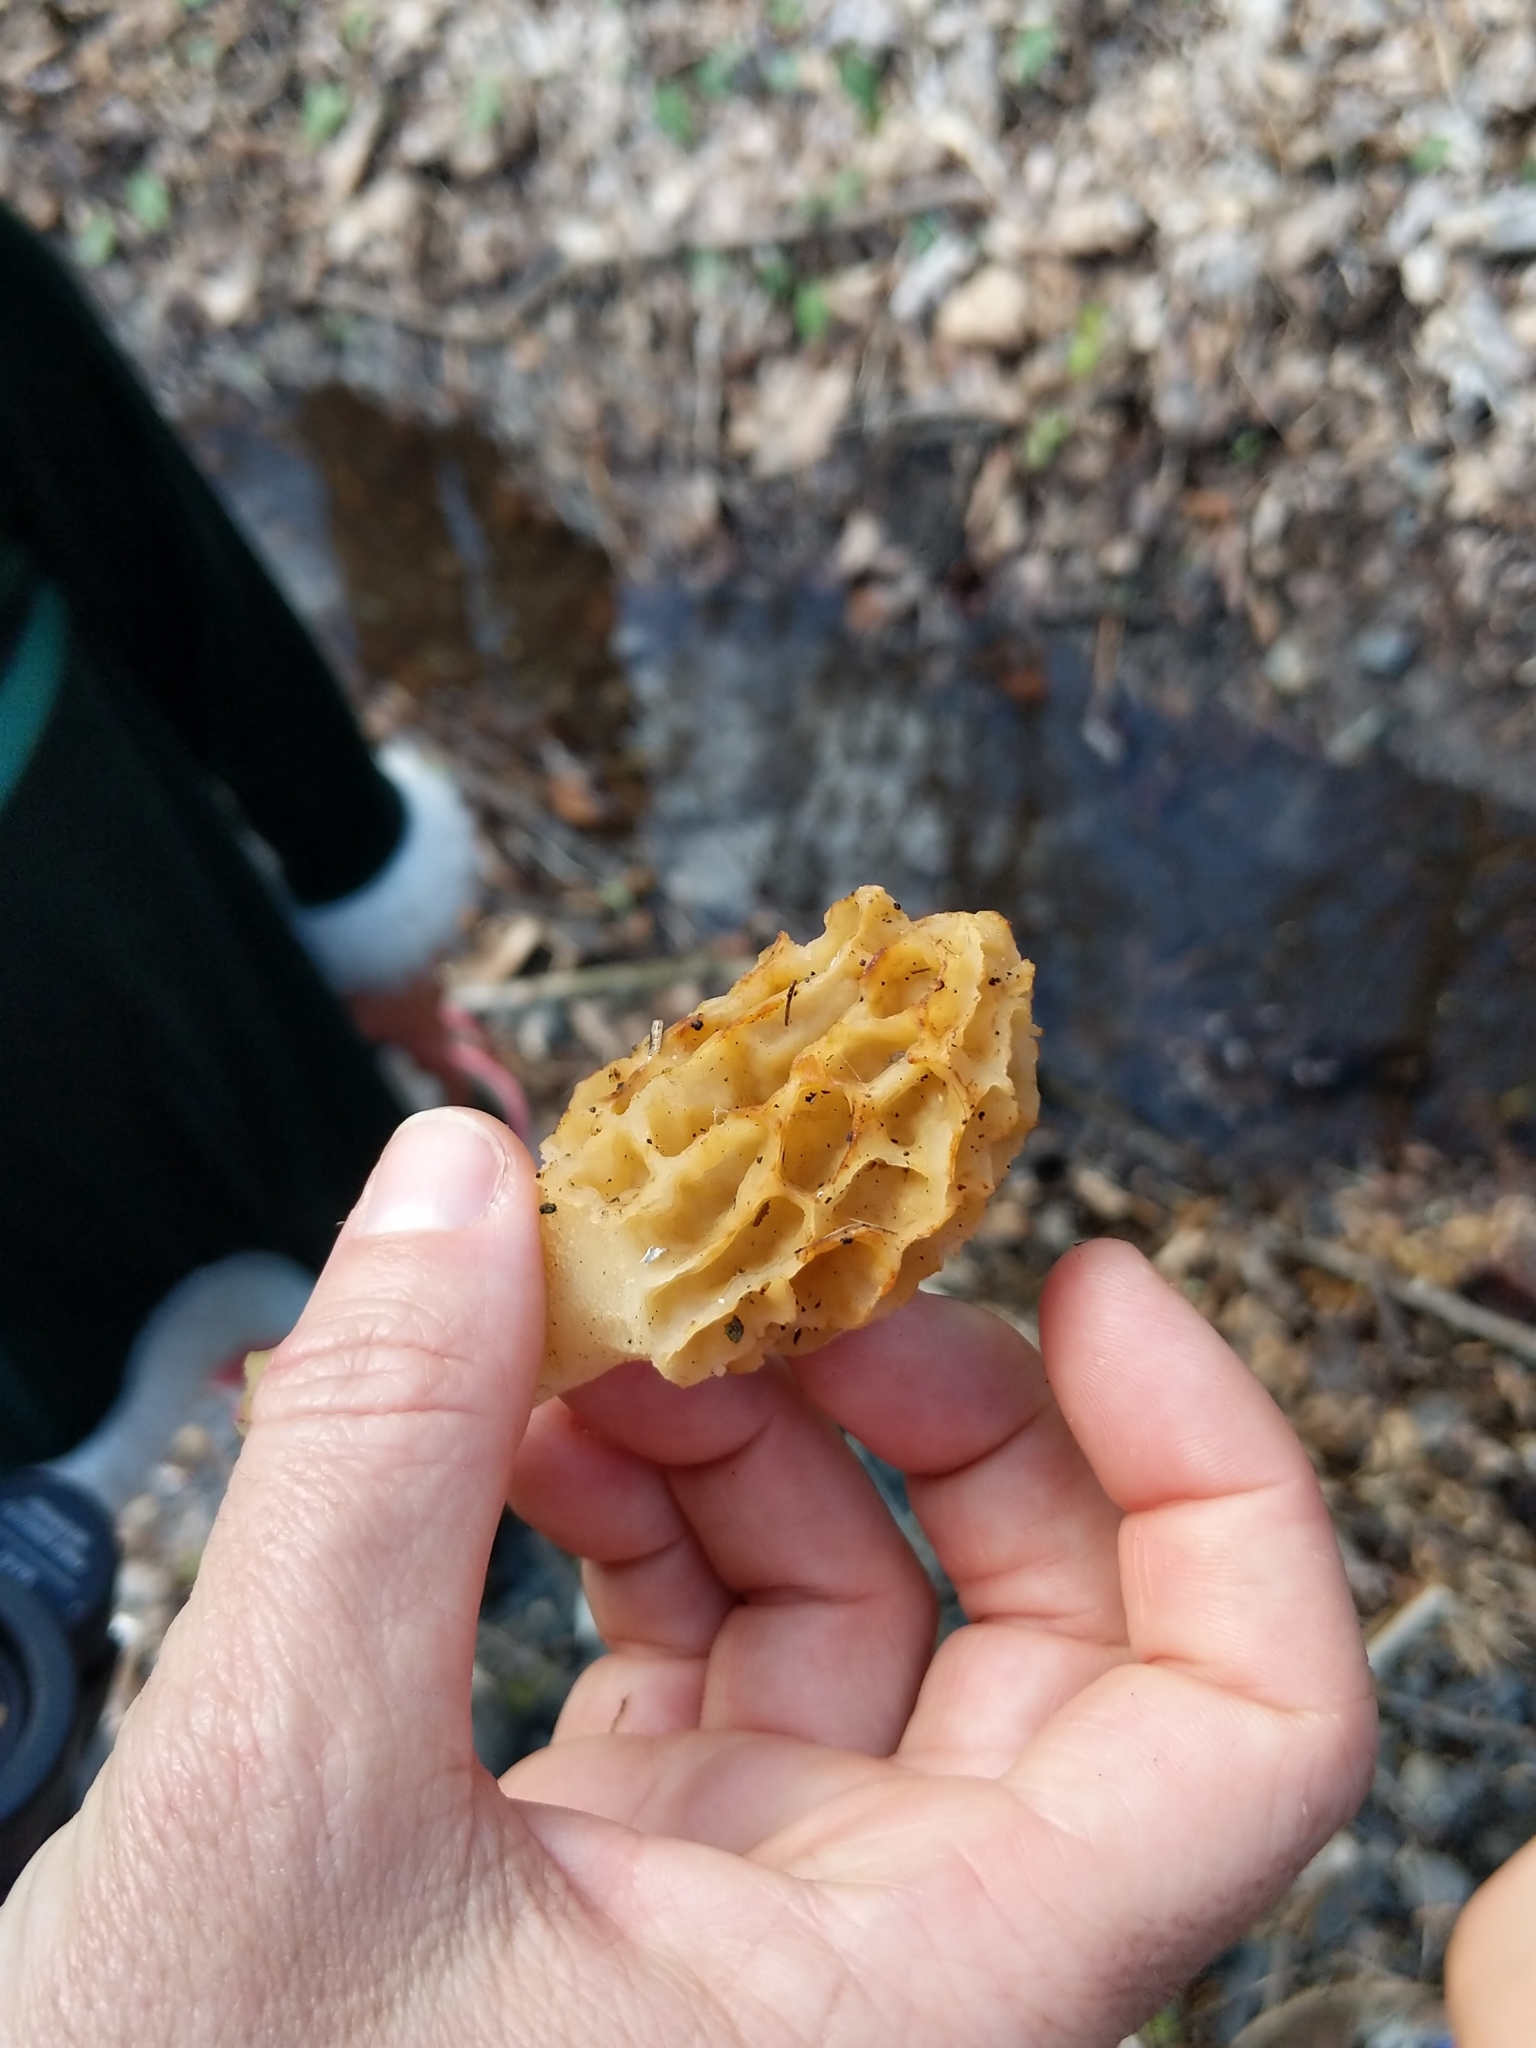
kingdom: Fungi
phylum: Ascomycota
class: Pezizomycetes
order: Pezizales
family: Morchellaceae
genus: Morchella
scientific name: Morchella diminutiva
